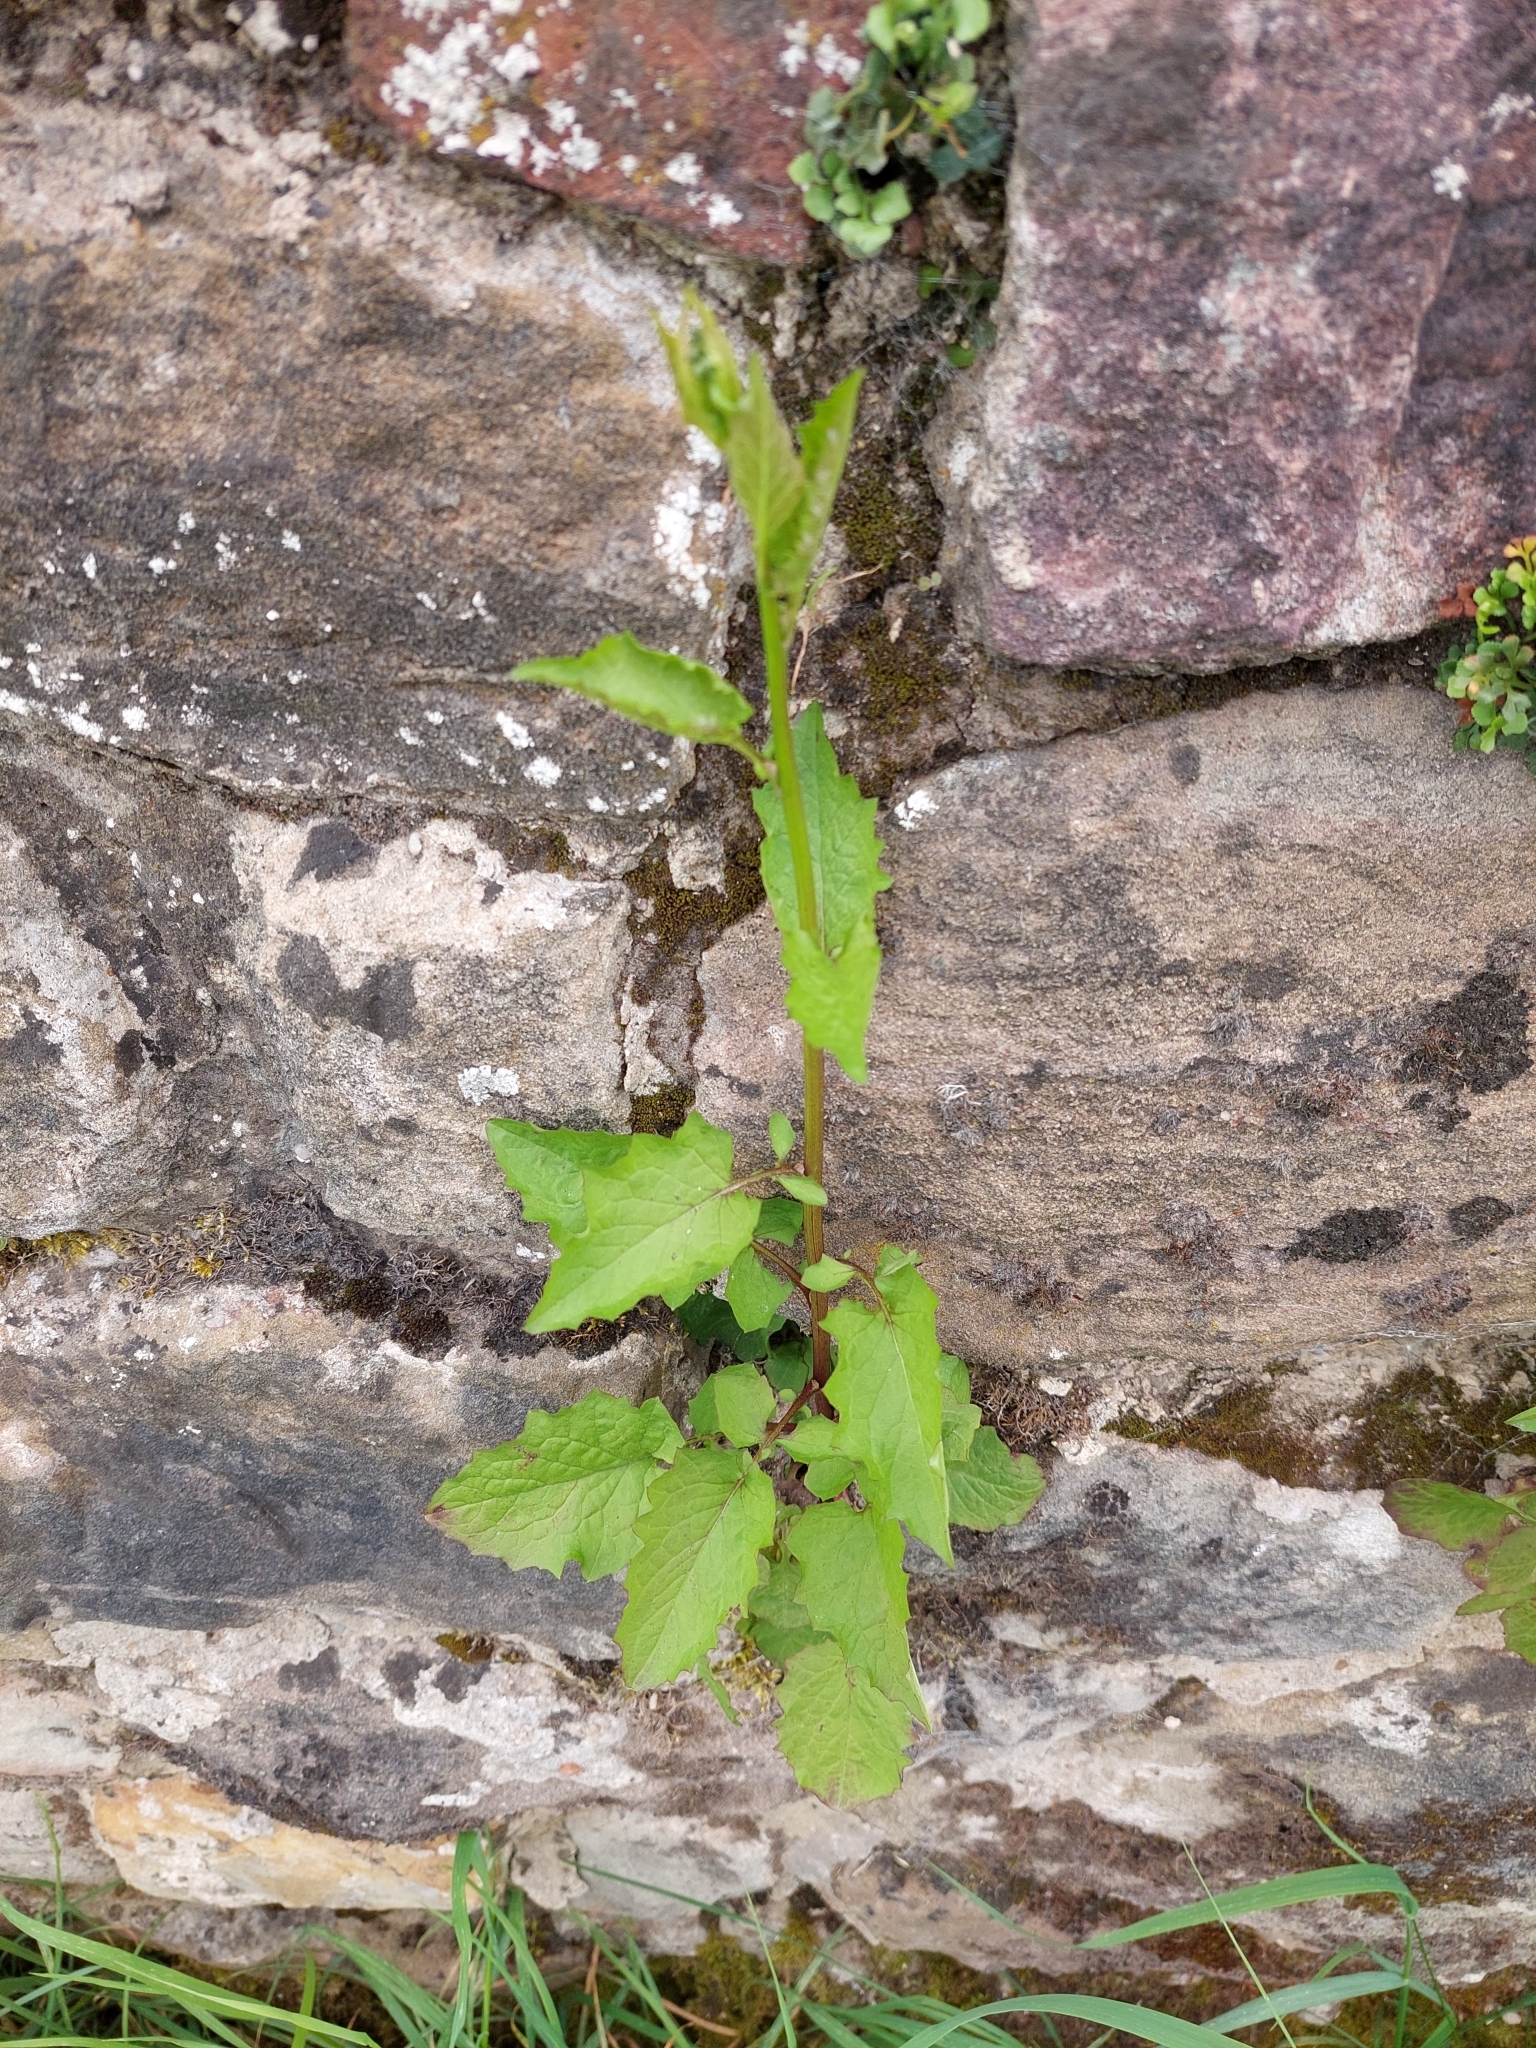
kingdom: Plantae
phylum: Tracheophyta
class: Magnoliopsida
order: Asterales
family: Asteraceae
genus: Lapsana
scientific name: Lapsana communis
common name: Nipplewort
